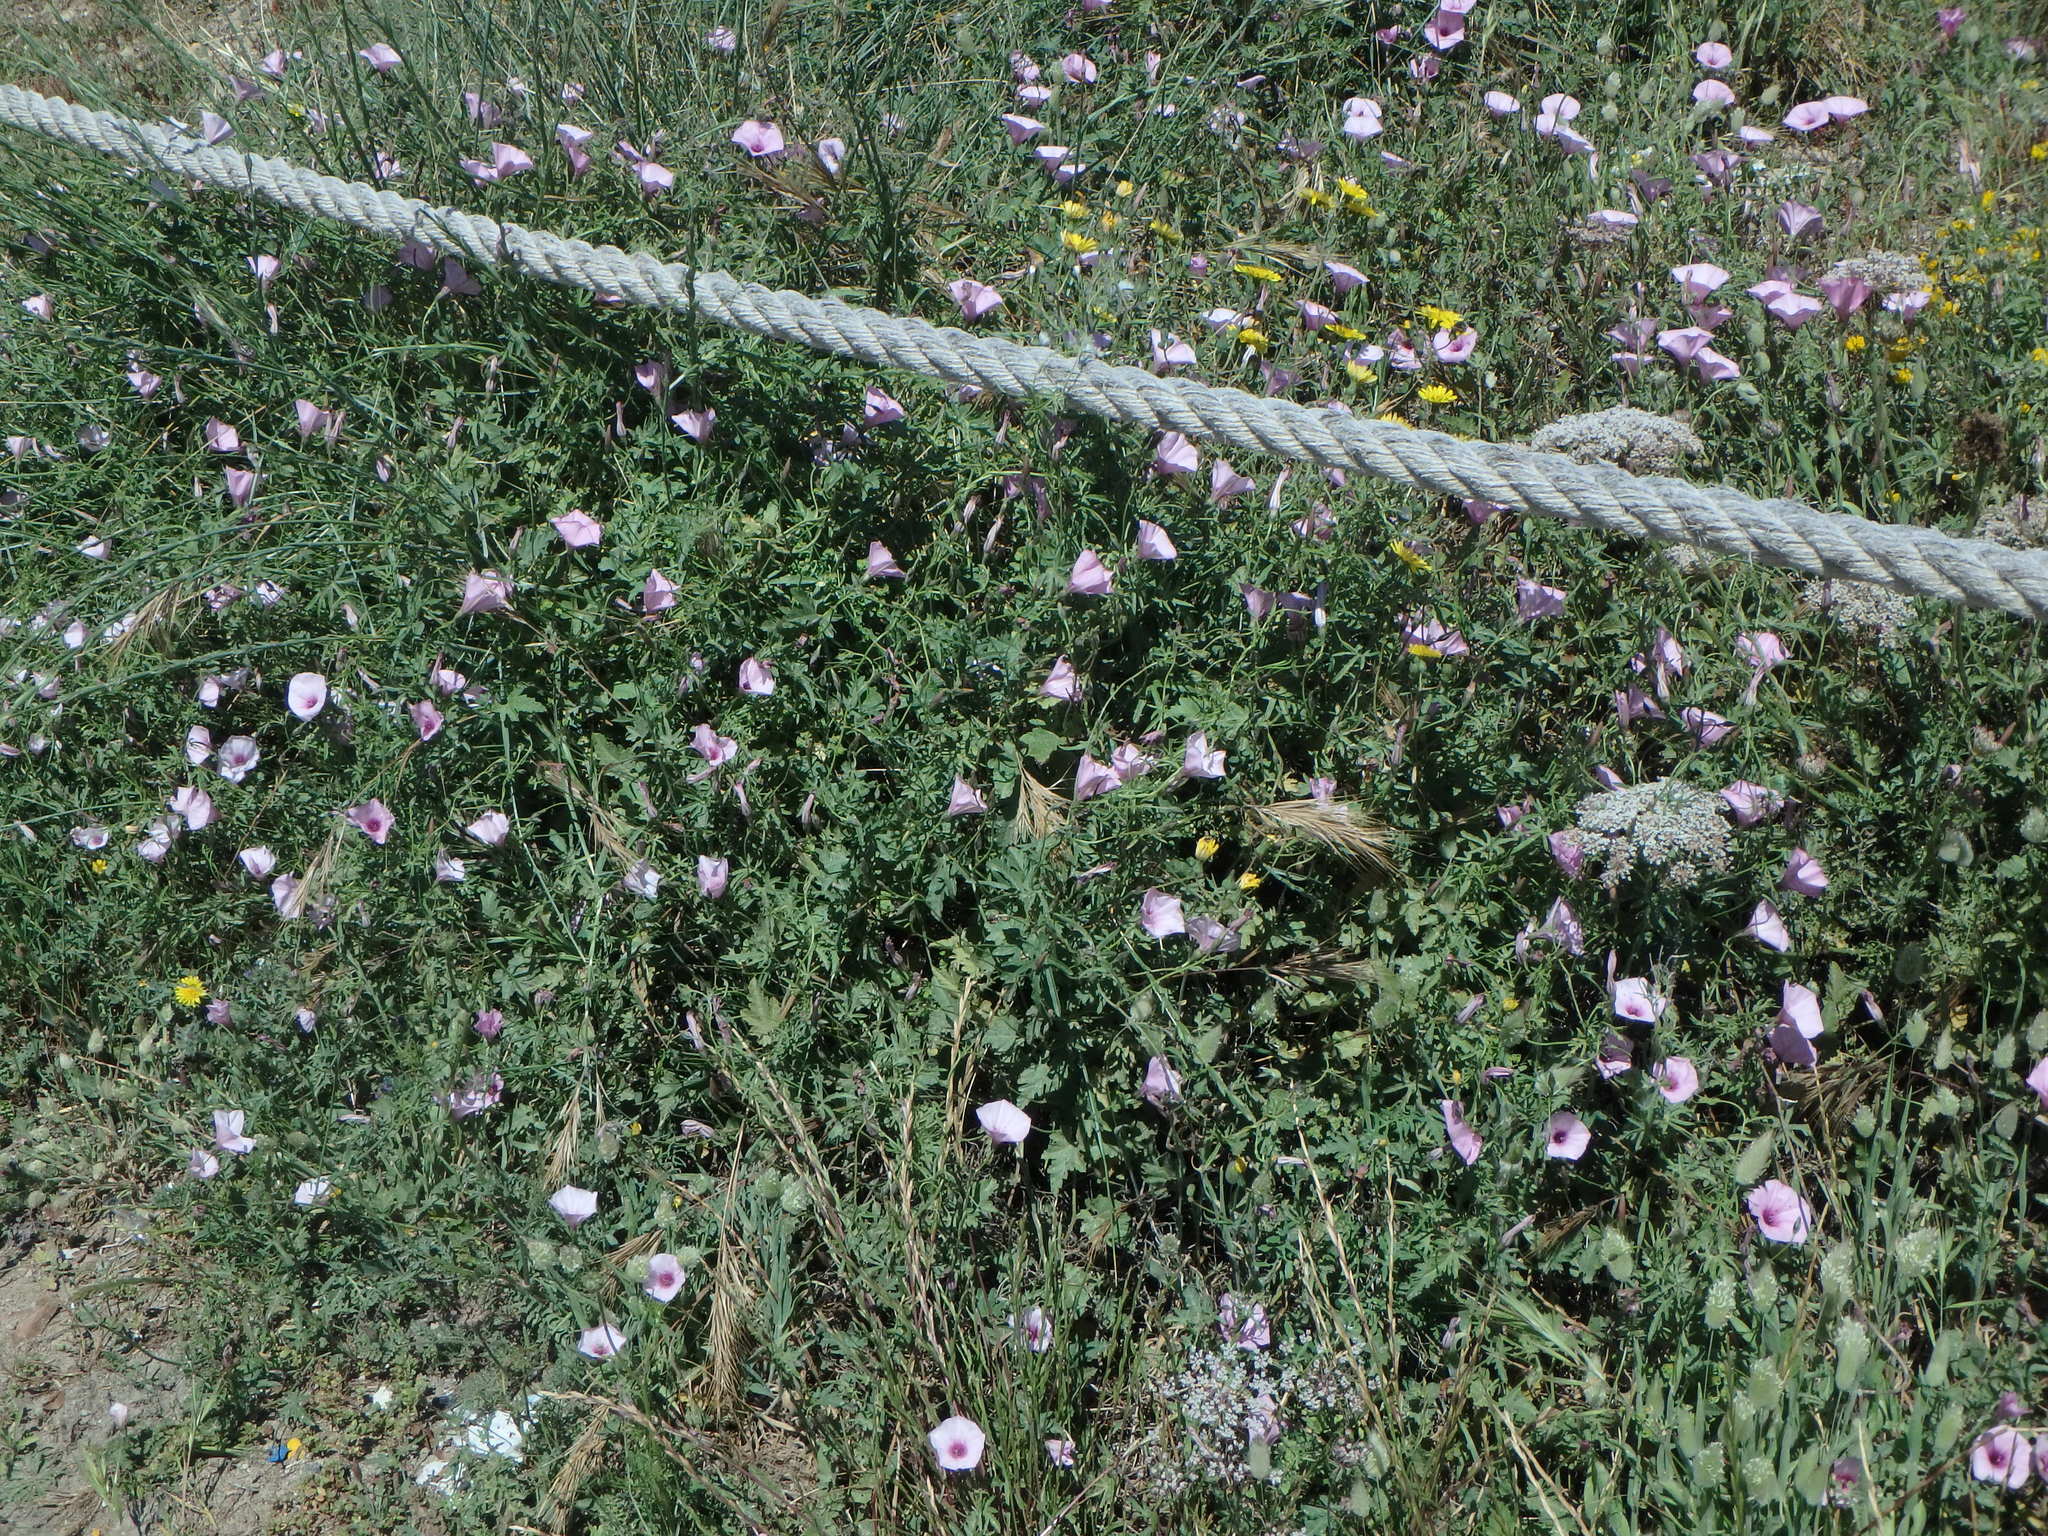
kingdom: Plantae
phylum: Tracheophyta
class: Magnoliopsida
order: Solanales
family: Convolvulaceae
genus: Convolvulus
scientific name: Convolvulus althaeoides
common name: Mallow bindweed
